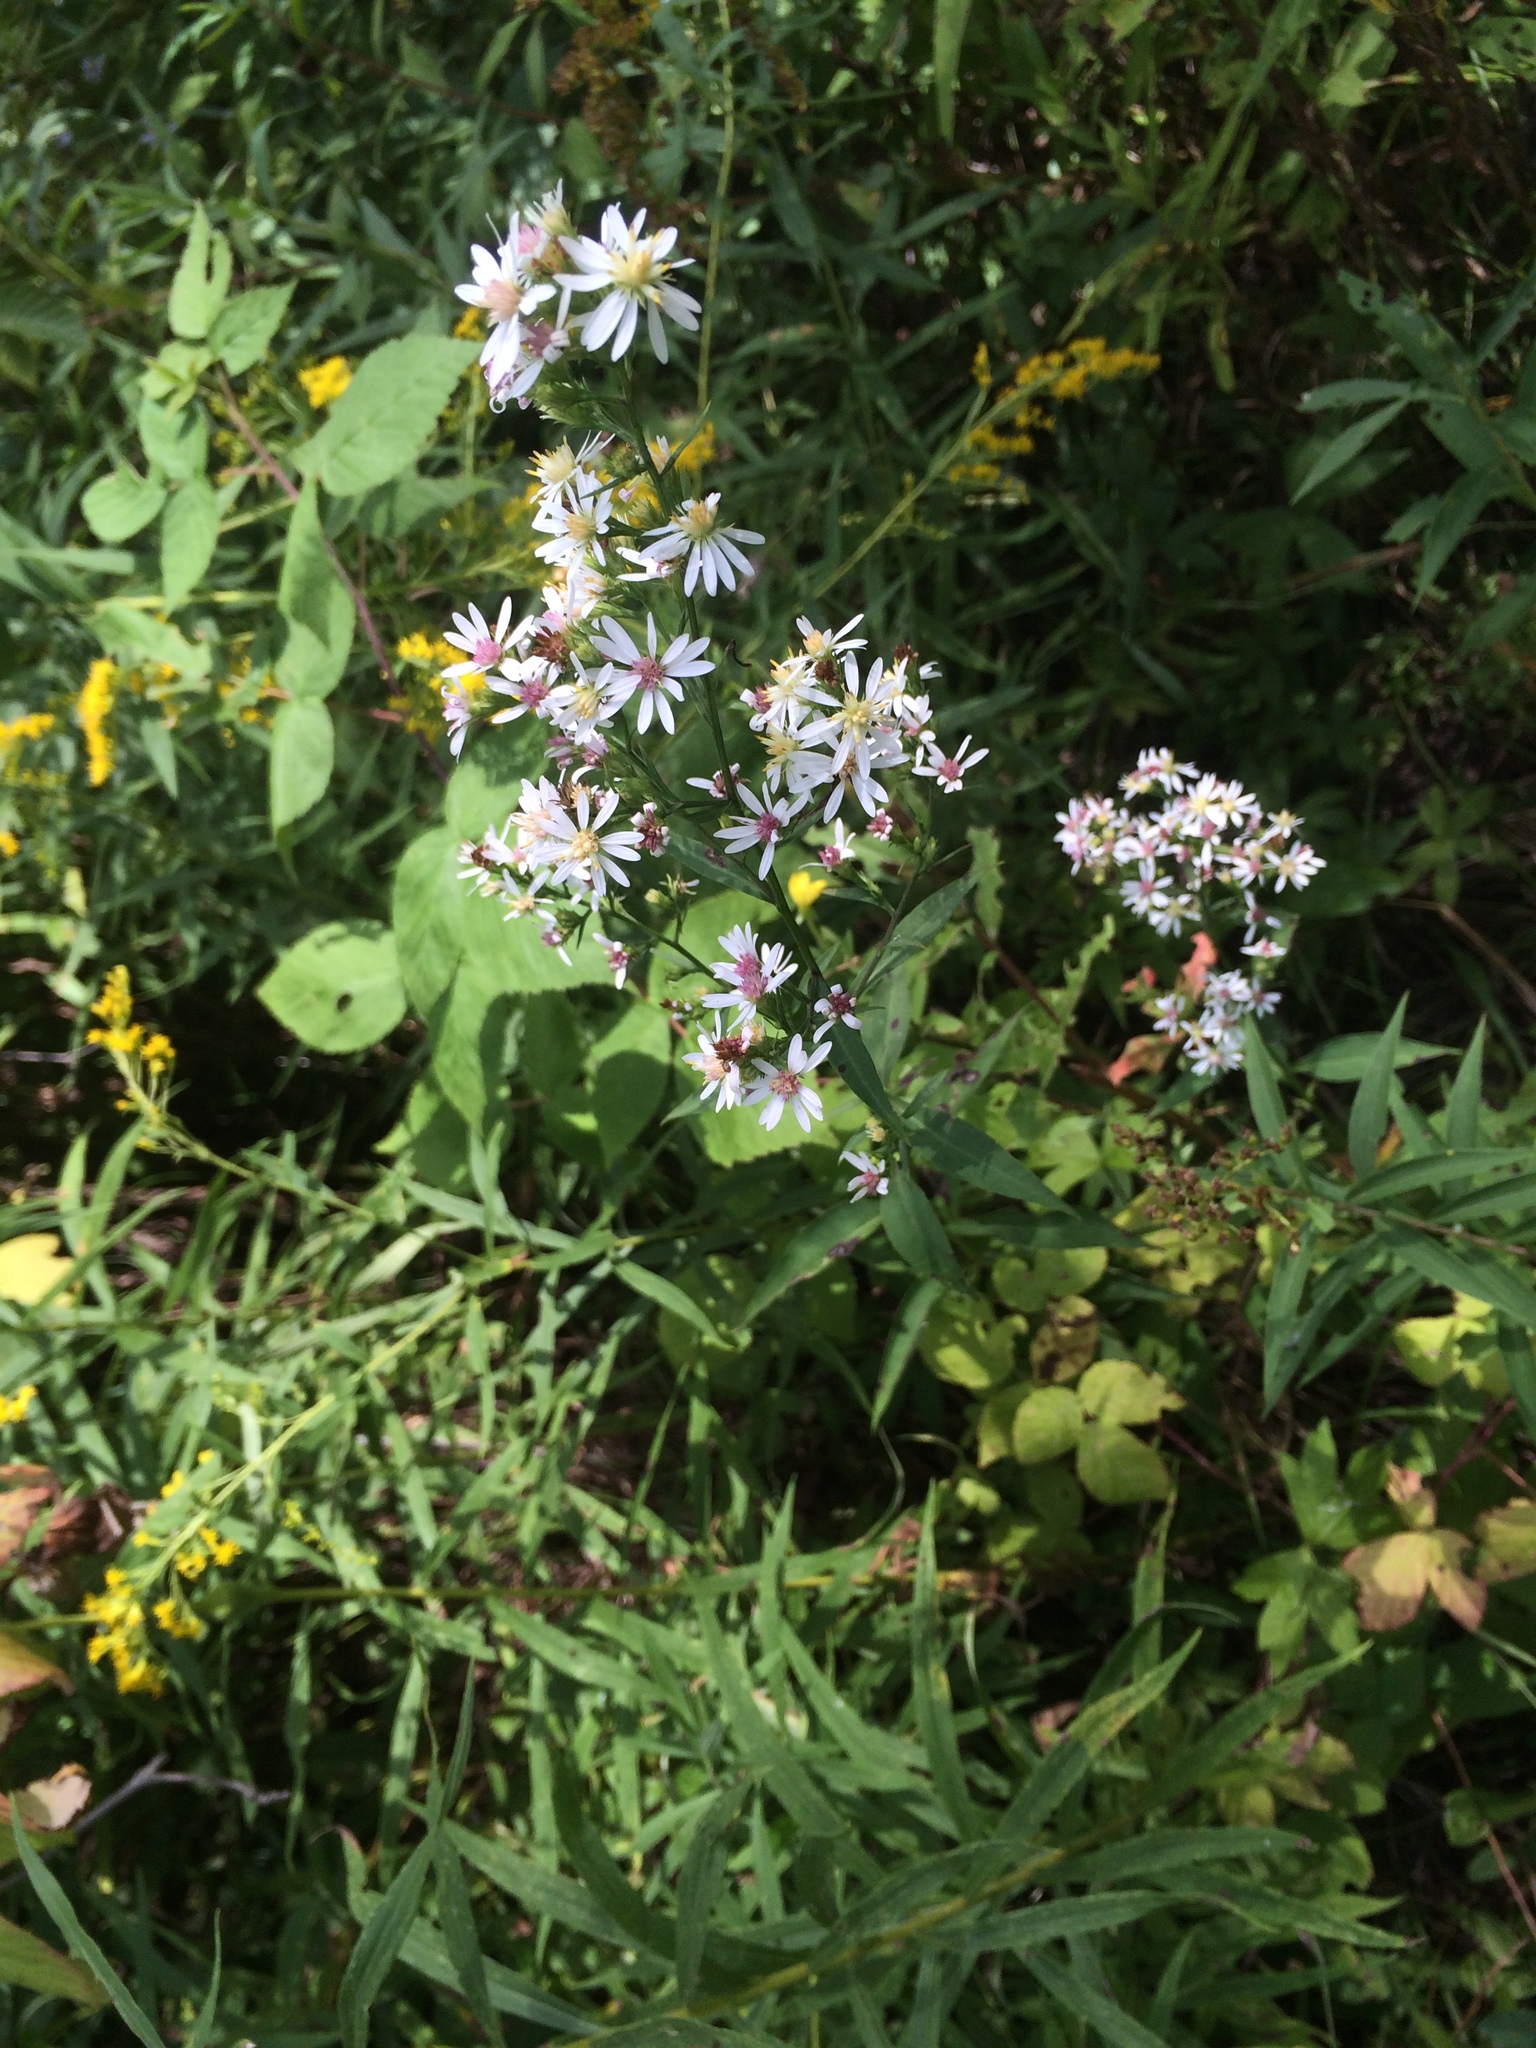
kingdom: Plantae
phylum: Tracheophyta
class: Magnoliopsida
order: Asterales
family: Asteraceae
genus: Symphyotrichum
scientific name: Symphyotrichum urophyllum
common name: Arrow-leaved aster
